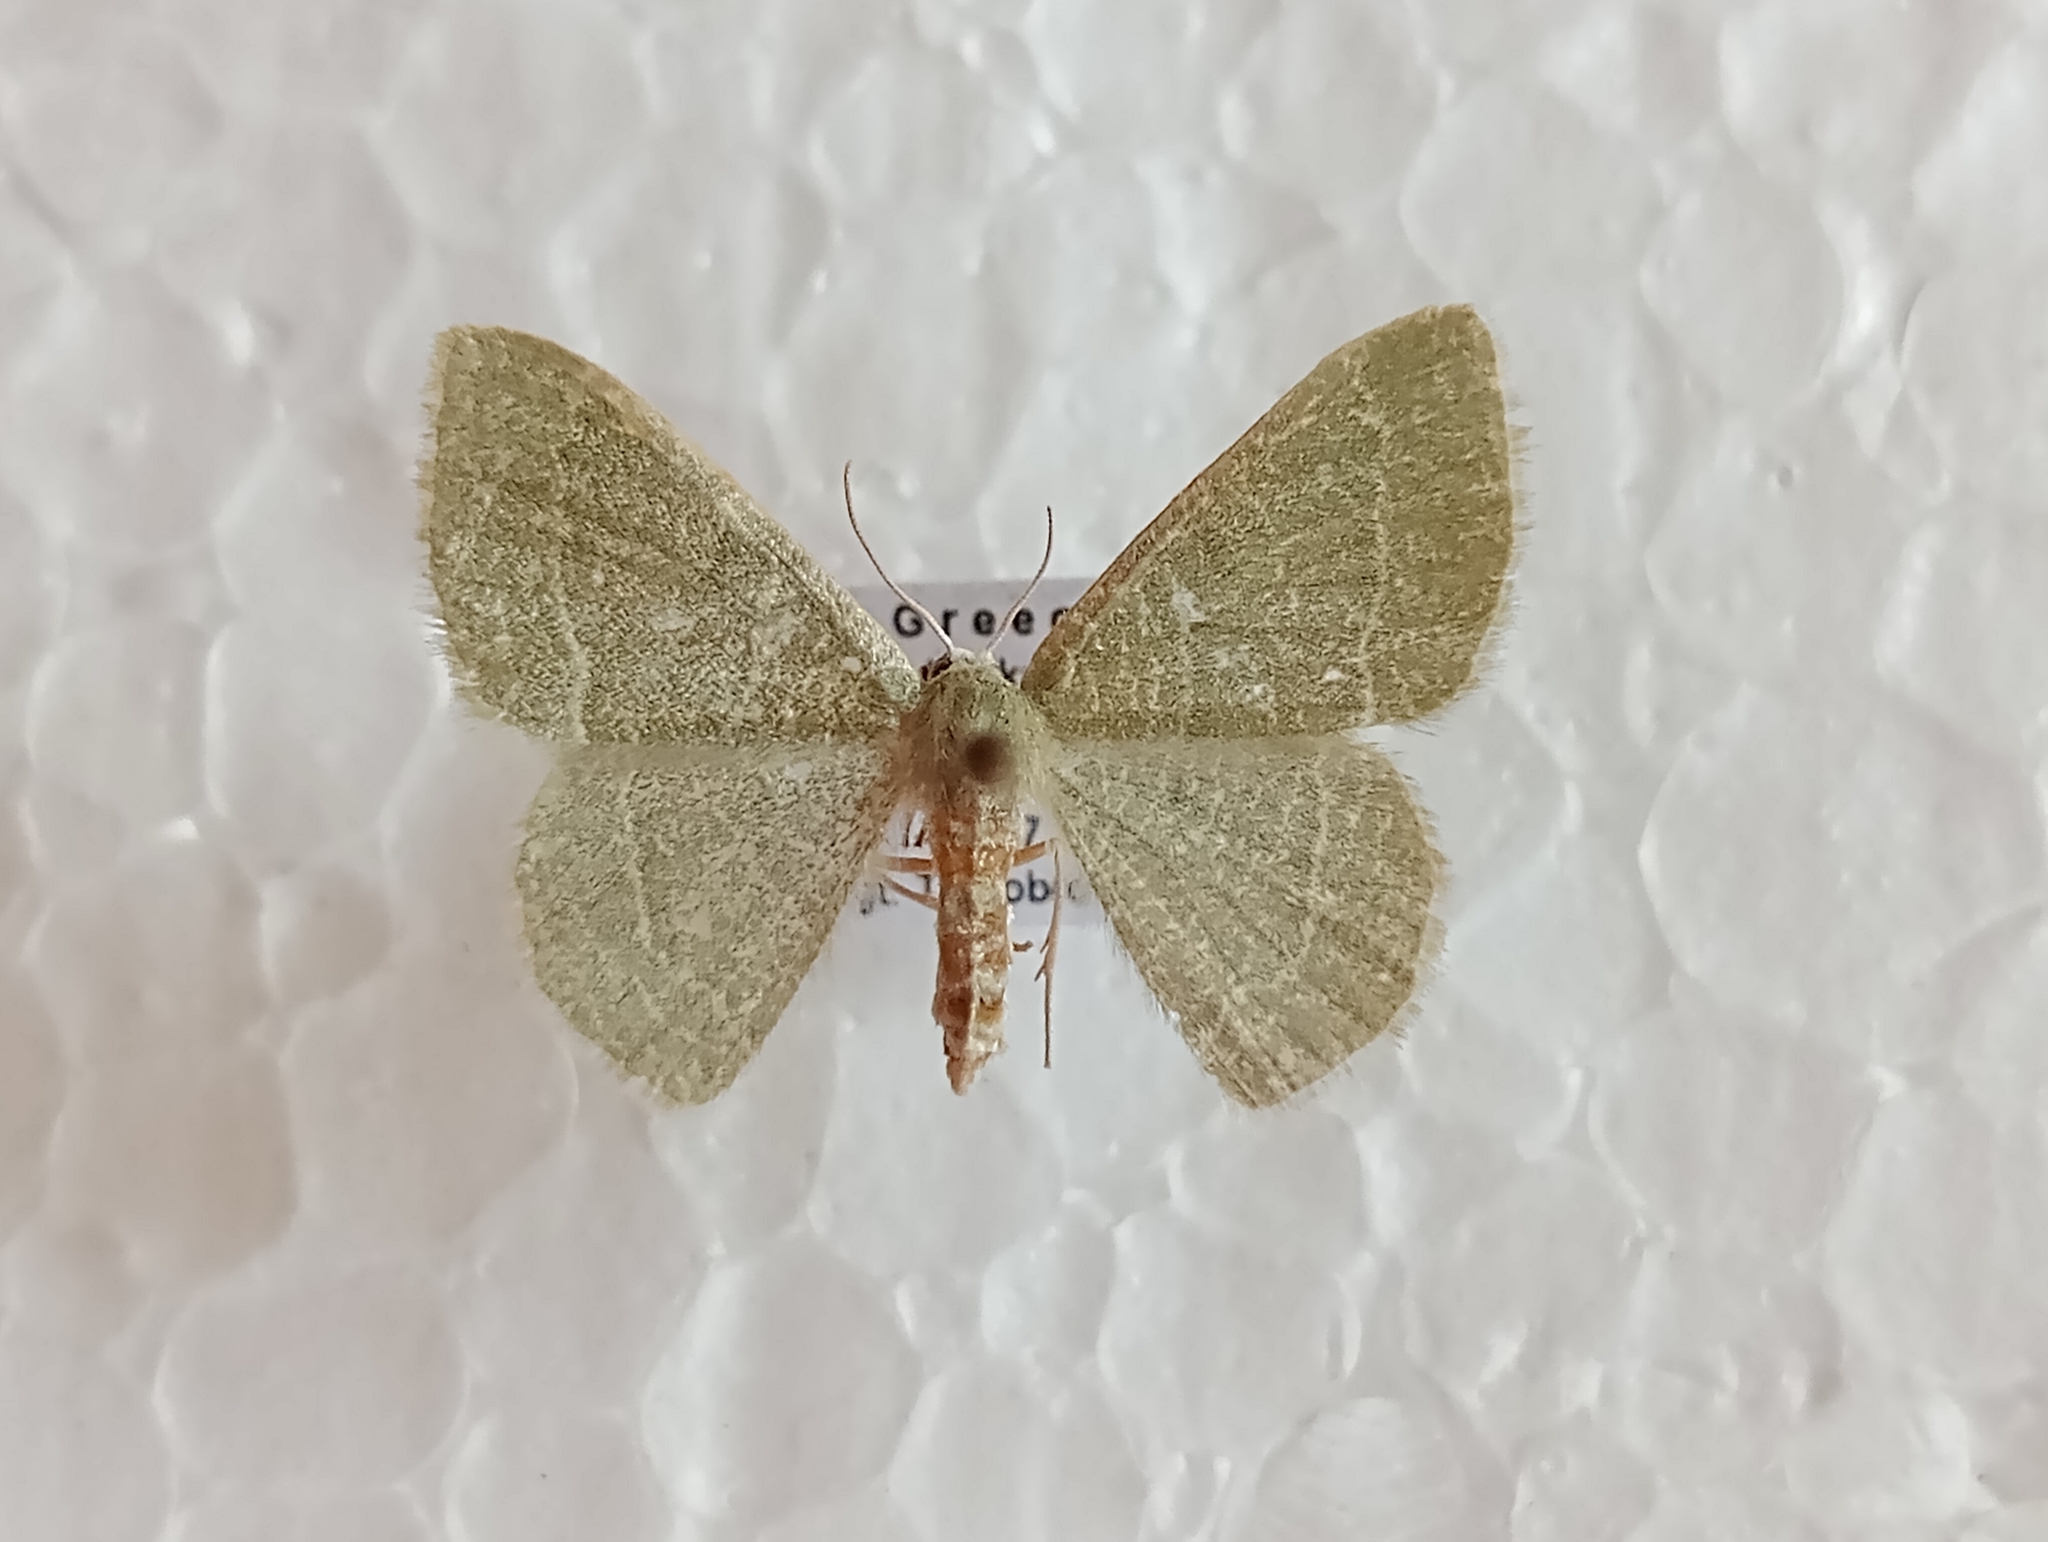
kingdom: Animalia
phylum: Arthropoda
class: Insecta
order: Lepidoptera
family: Geometridae
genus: Chlorissa
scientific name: Chlorissa etruscaria
